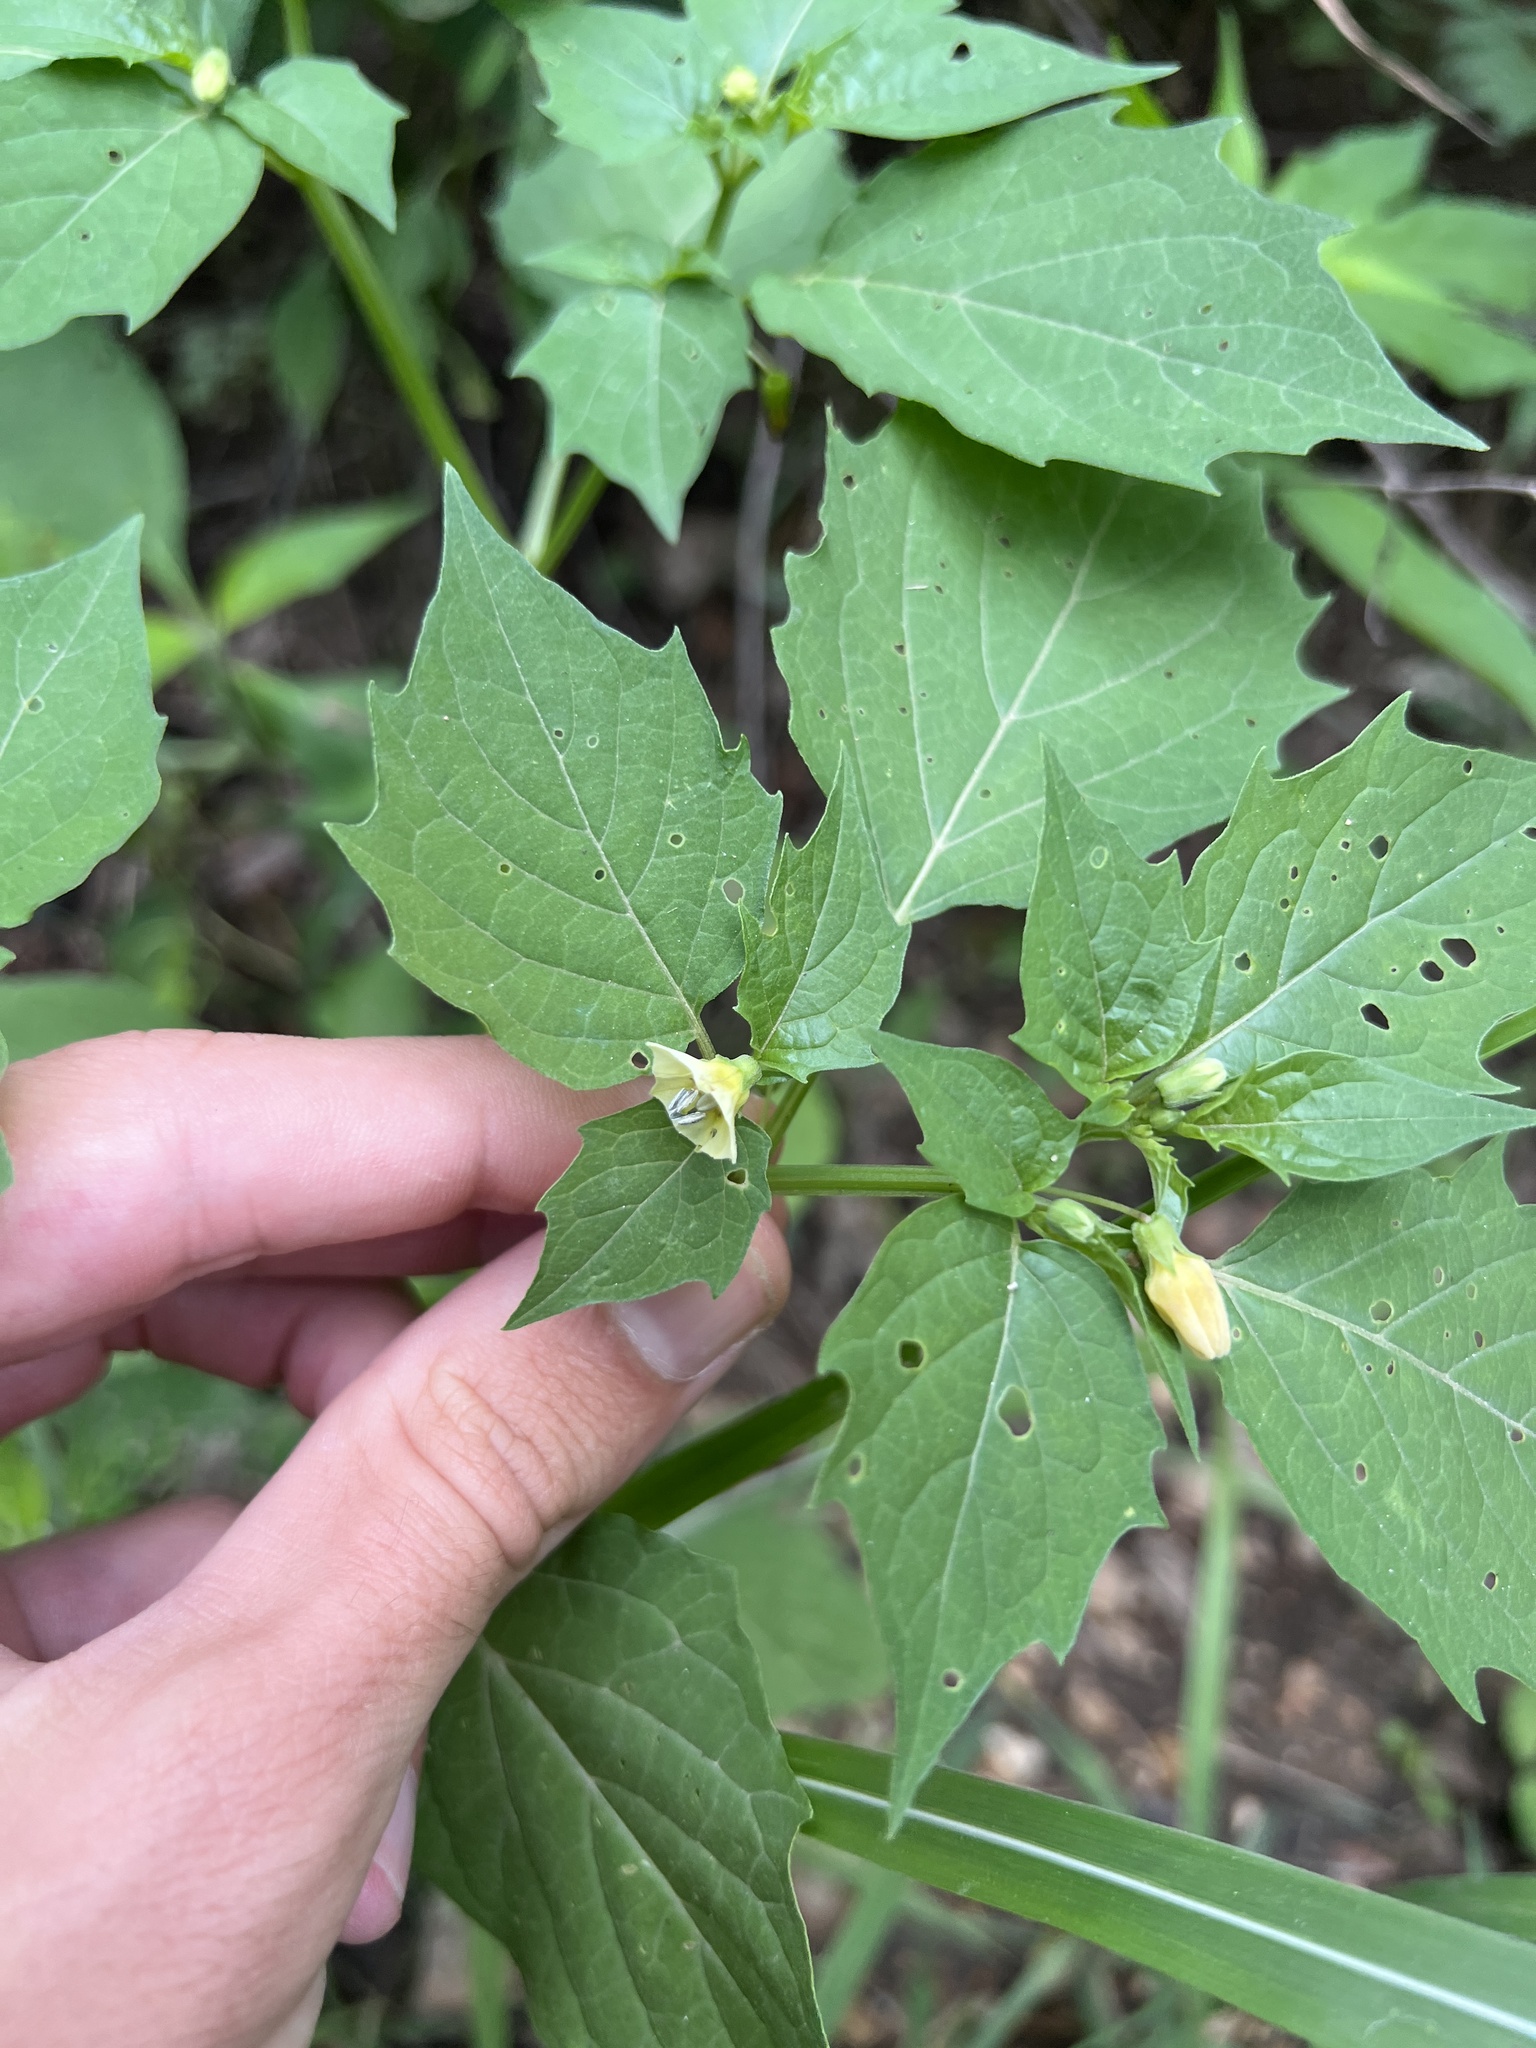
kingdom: Plantae
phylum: Tracheophyta
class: Magnoliopsida
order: Solanales
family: Solanaceae
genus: Physalis
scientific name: Physalis angulata
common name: Angular winter-cherry
